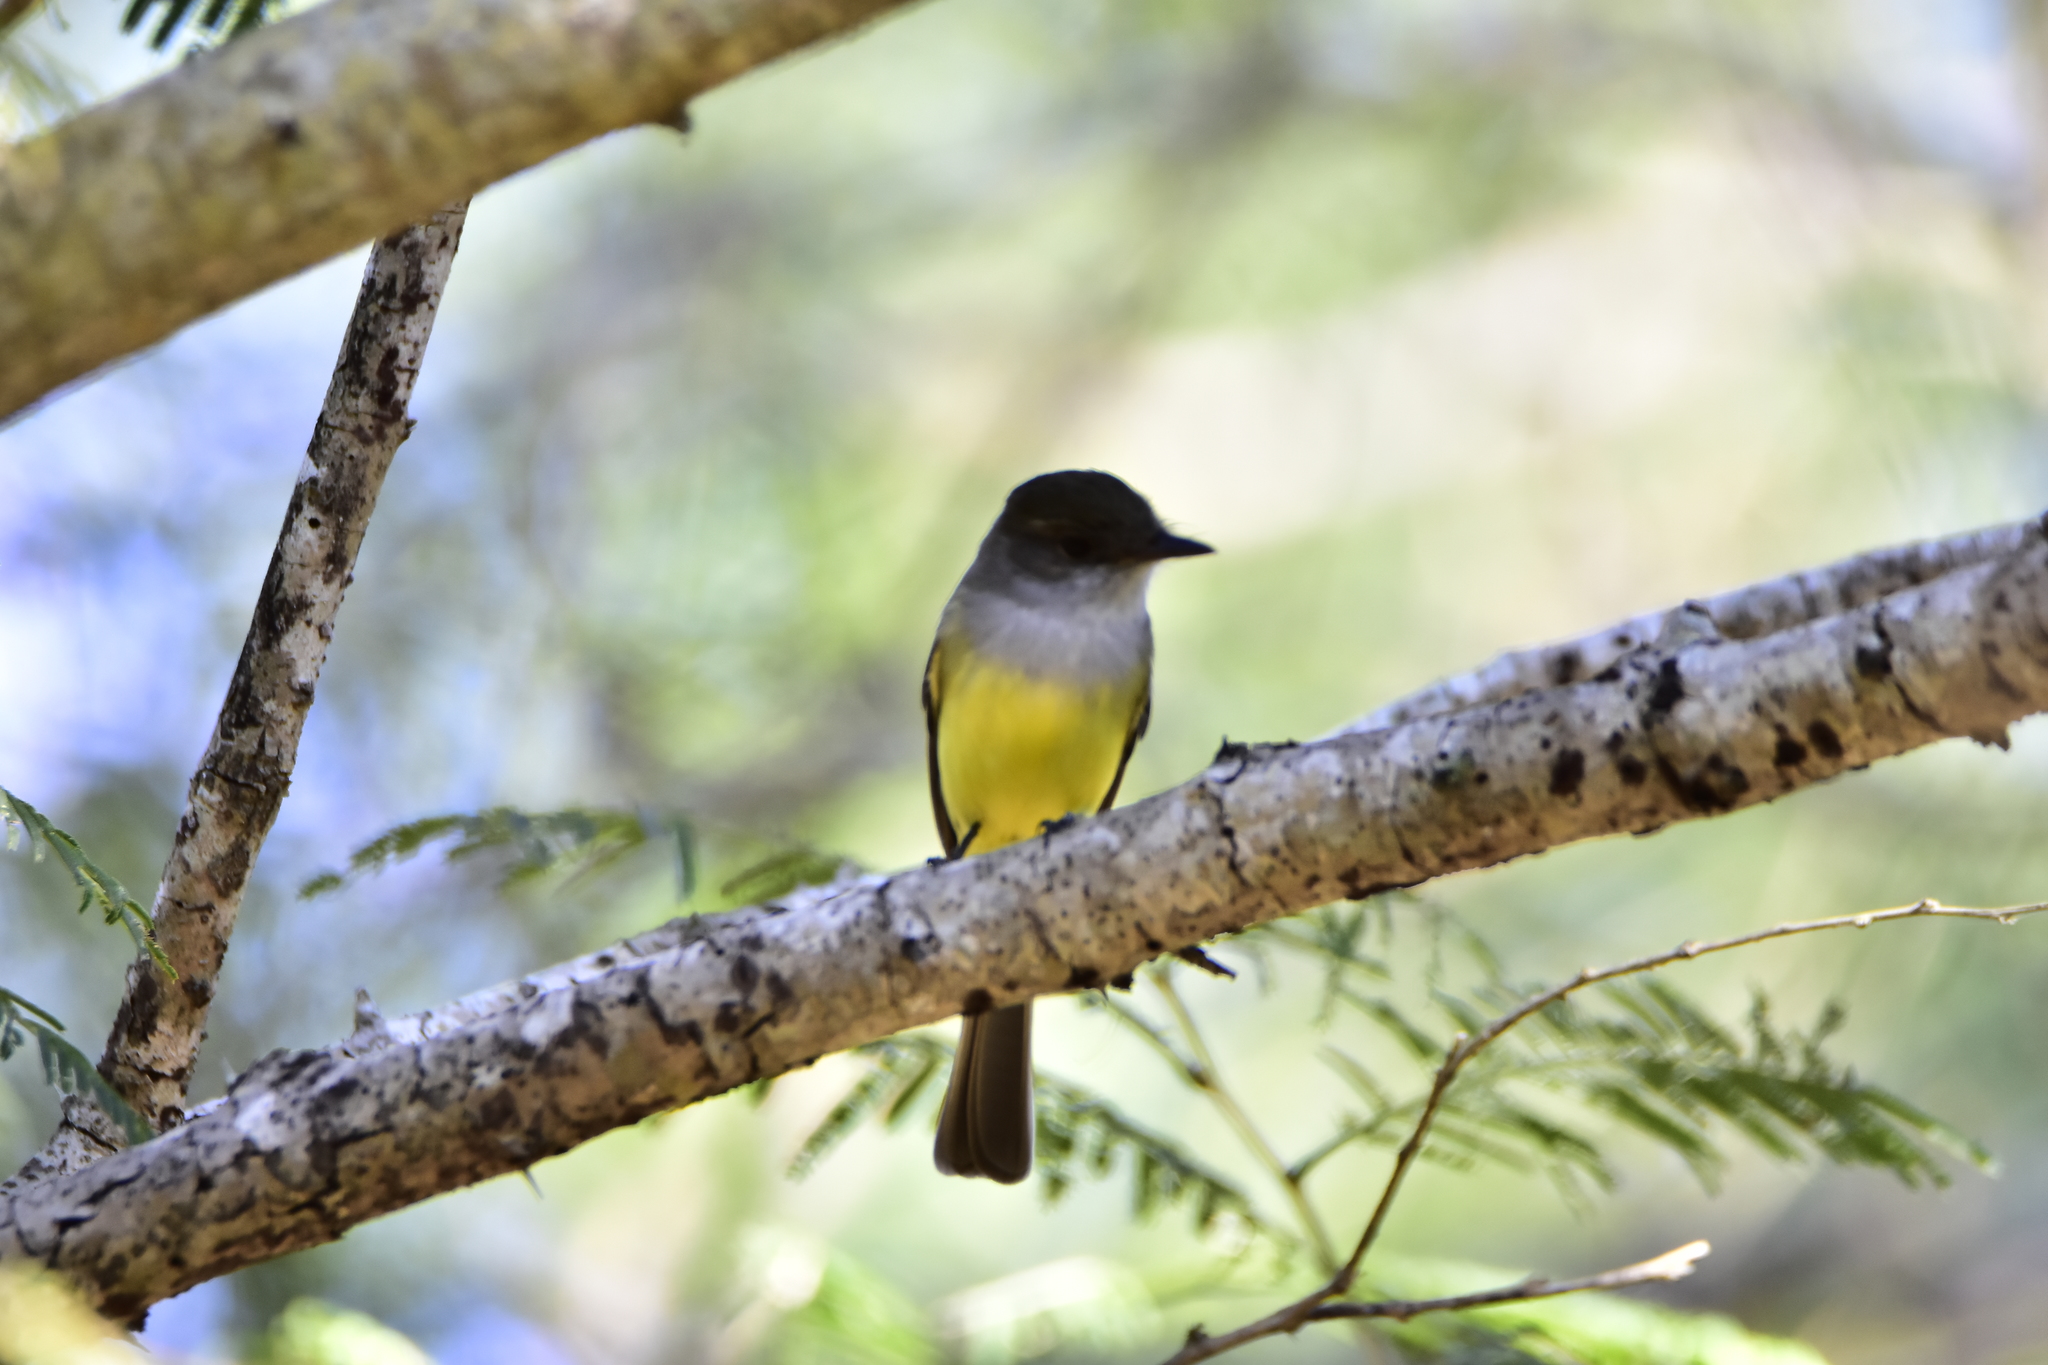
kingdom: Animalia
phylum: Chordata
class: Aves
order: Passeriformes
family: Tyrannidae
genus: Myiarchus
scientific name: Myiarchus tuberculifer
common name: Dusky-capped flycatcher
